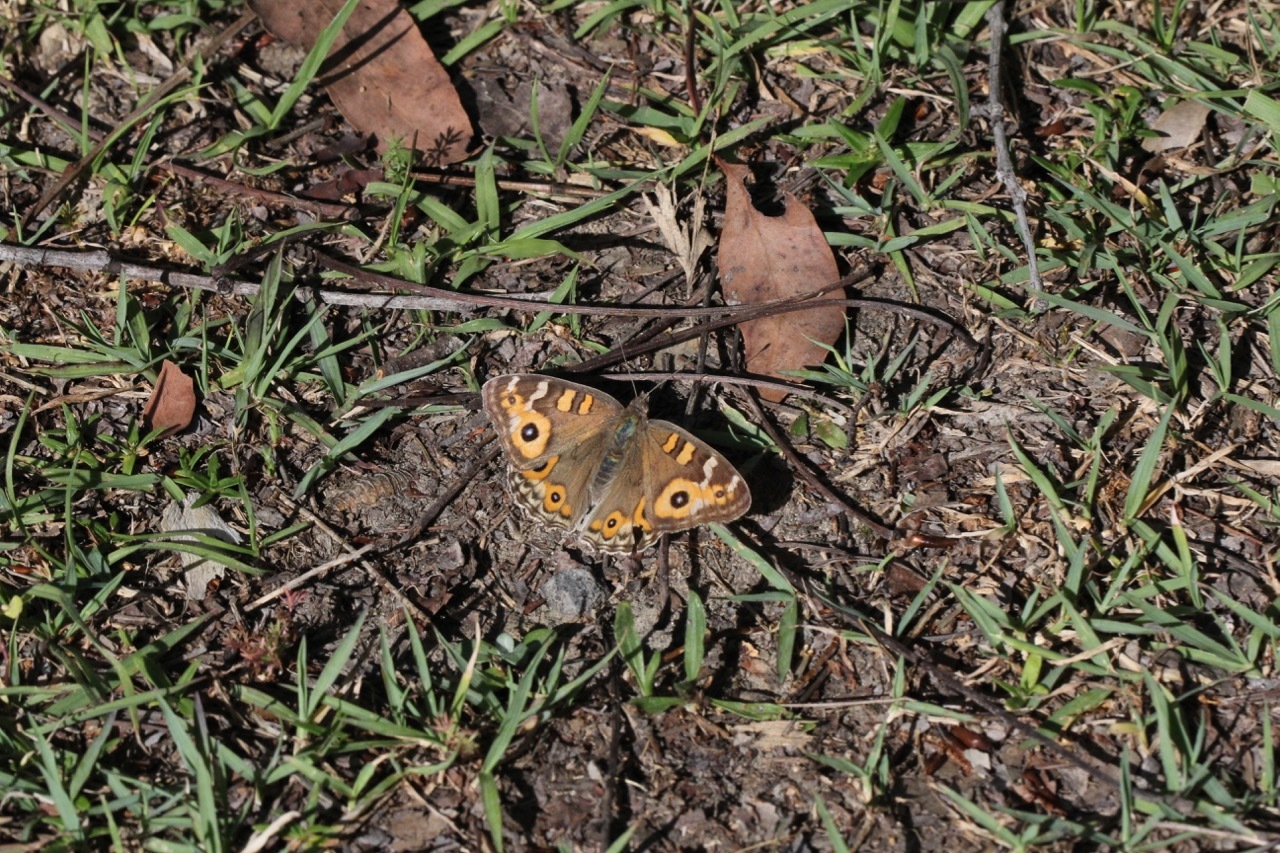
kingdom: Animalia
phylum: Arthropoda
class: Insecta
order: Lepidoptera
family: Nymphalidae
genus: Junonia
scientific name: Junonia villida
